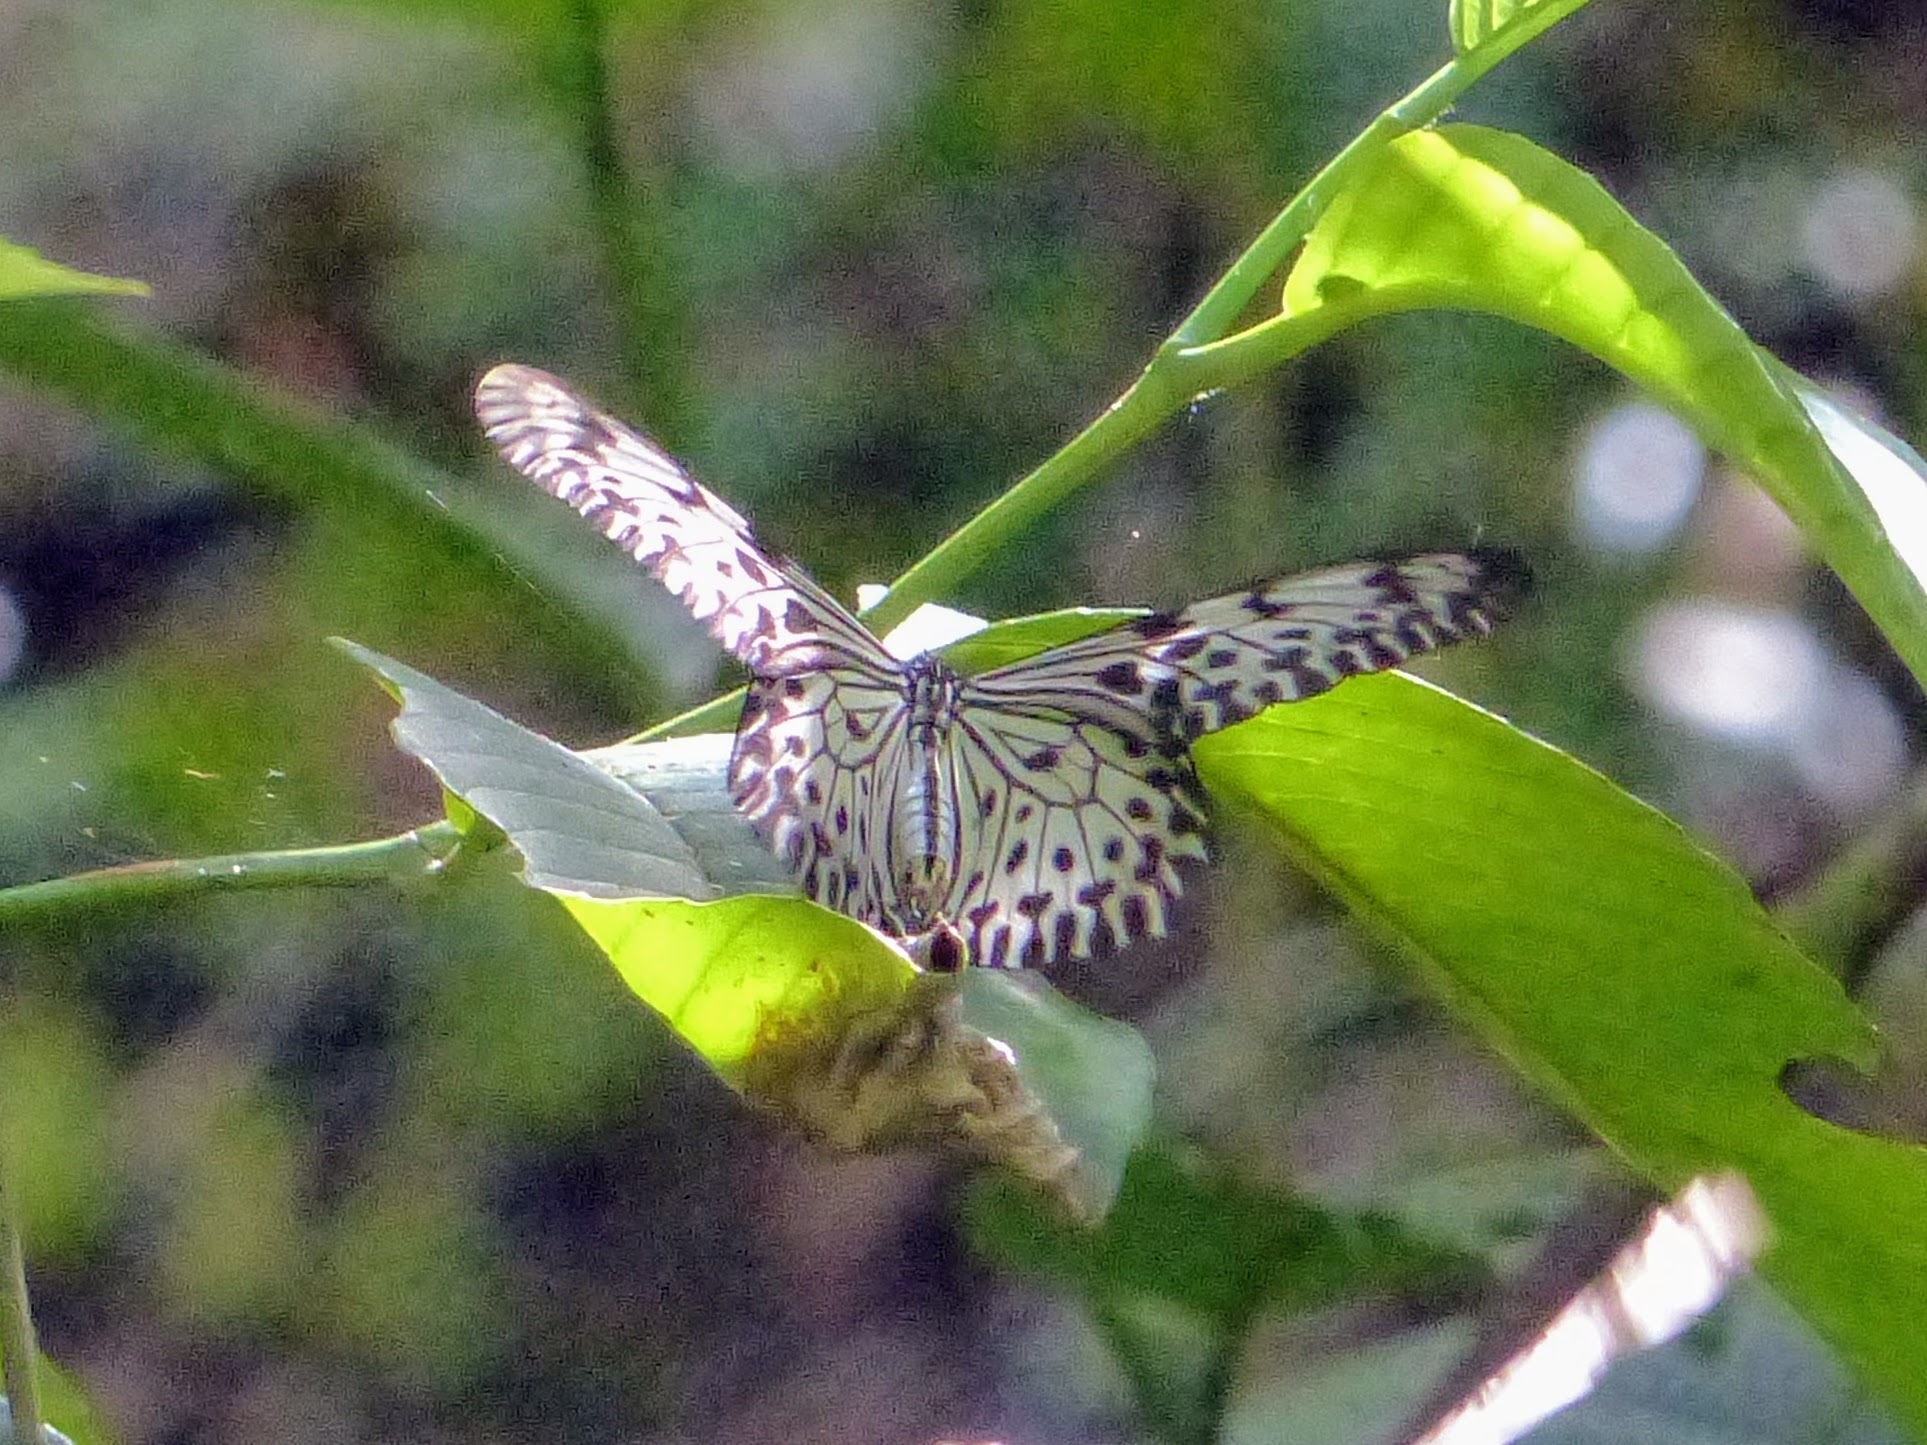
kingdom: Animalia
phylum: Arthropoda
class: Insecta
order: Lepidoptera
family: Nymphalidae
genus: Idea
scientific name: Idea iasonia
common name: Ceylon tree-nymph
